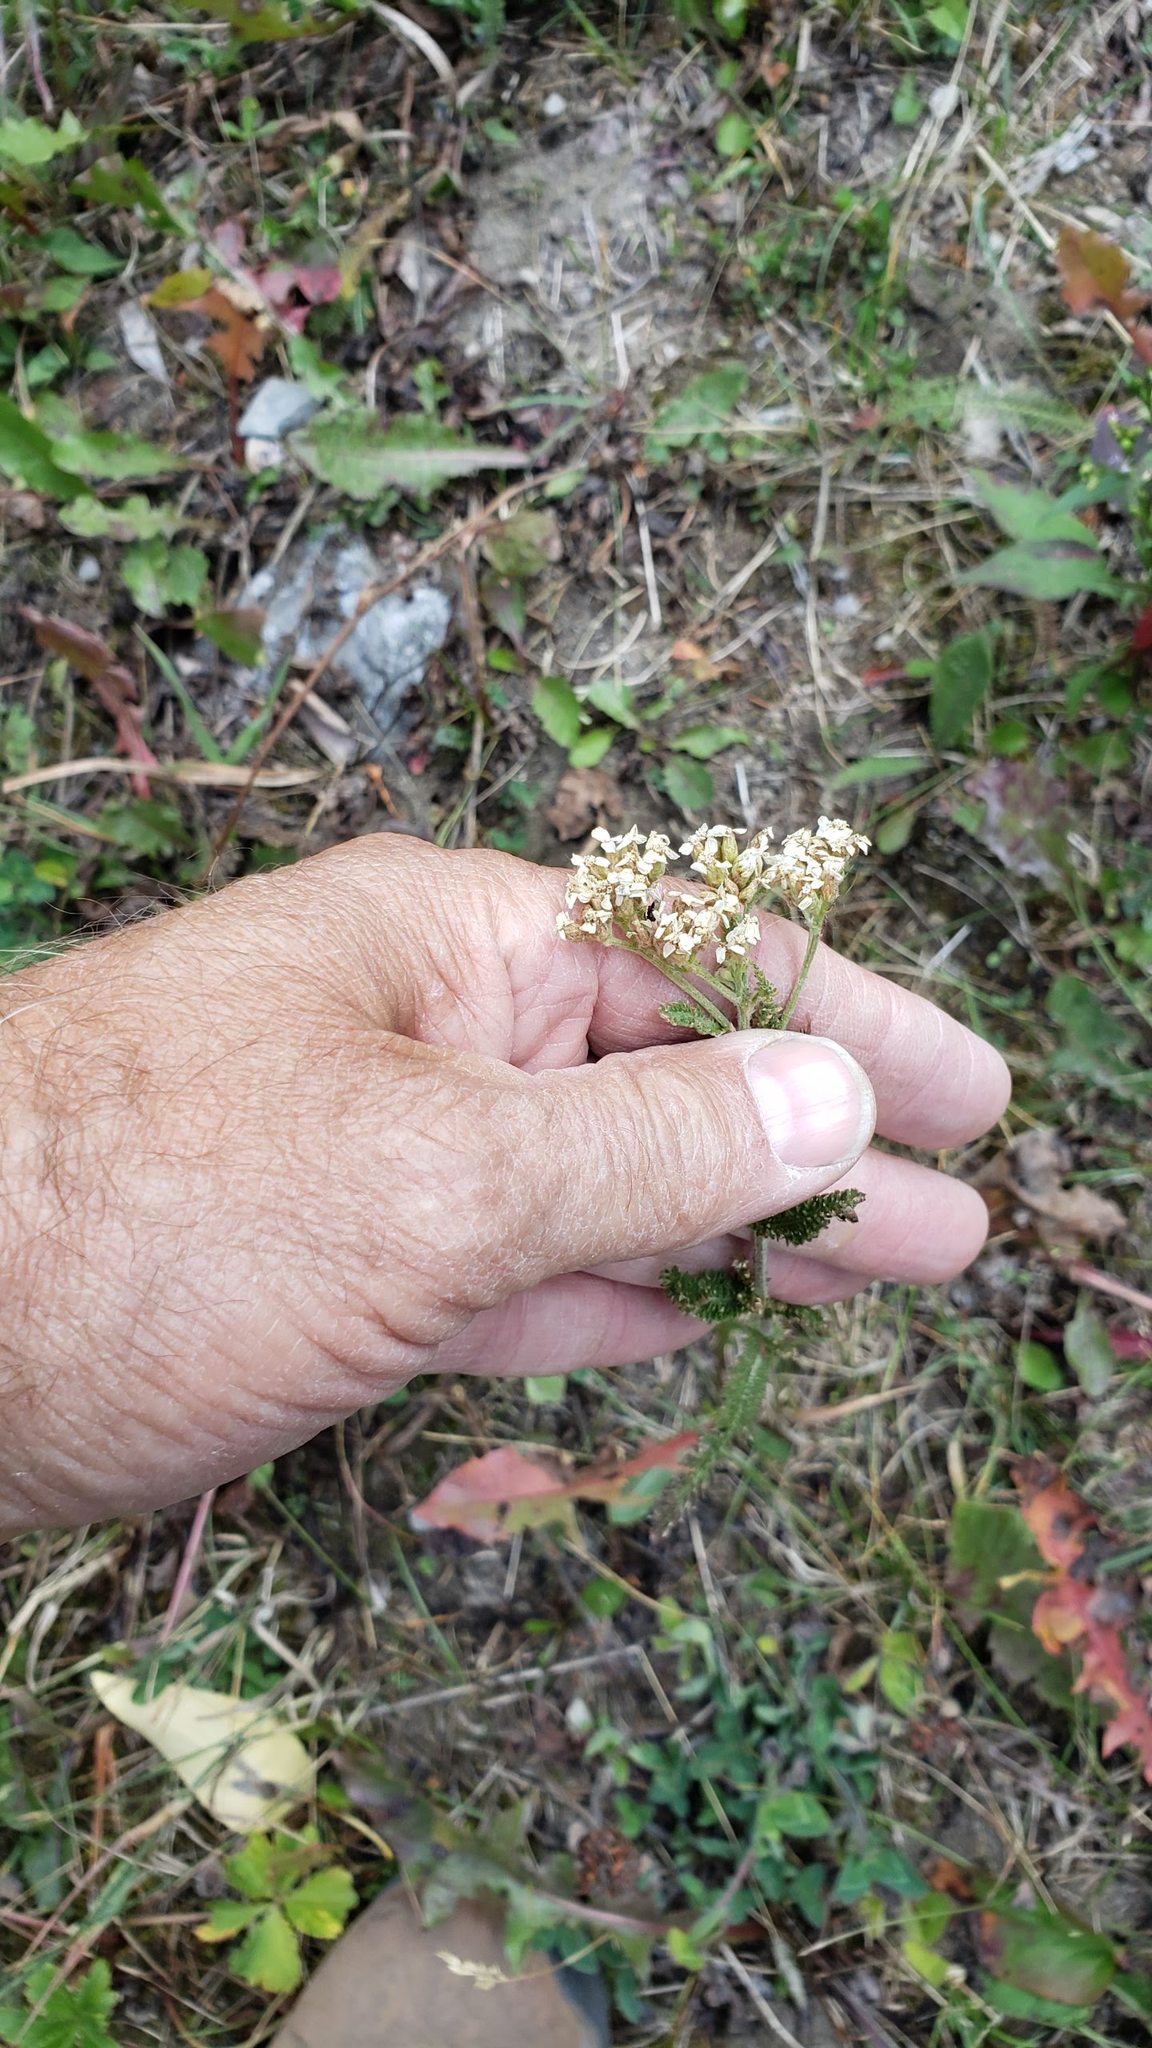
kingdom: Plantae
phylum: Tracheophyta
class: Magnoliopsida
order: Asterales
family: Asteraceae
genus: Achillea
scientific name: Achillea millefolium
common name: Yarrow
